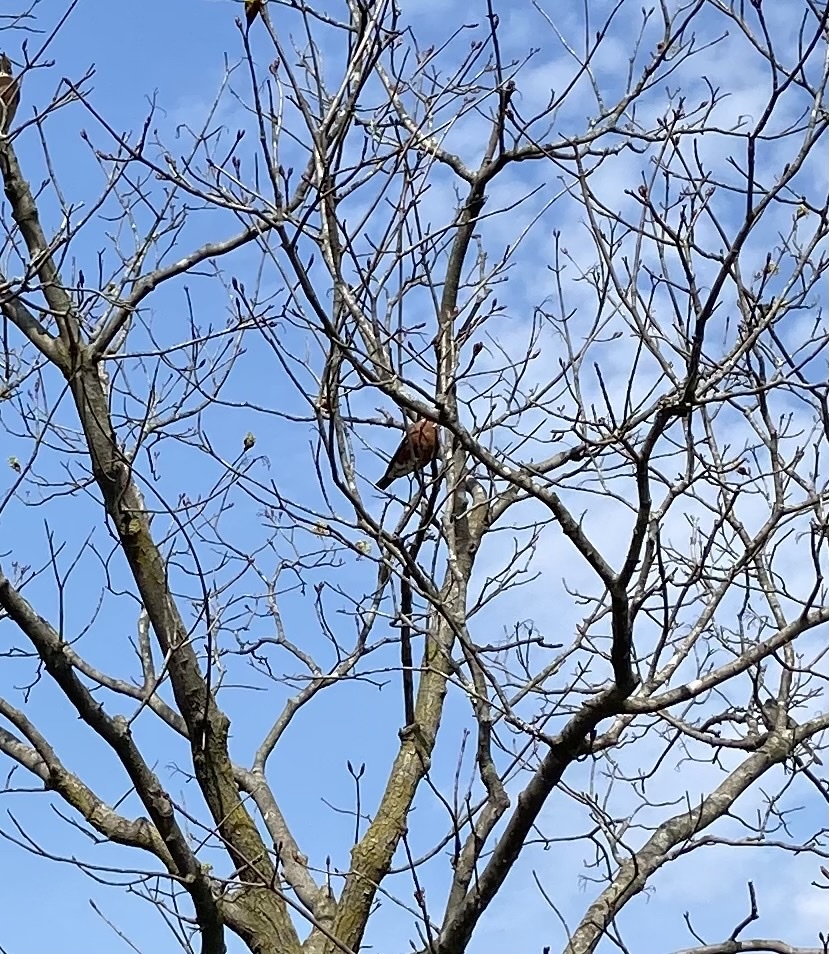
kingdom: Animalia
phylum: Chordata
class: Aves
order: Passeriformes
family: Turdidae
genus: Turdus
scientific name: Turdus migratorius
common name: American robin
